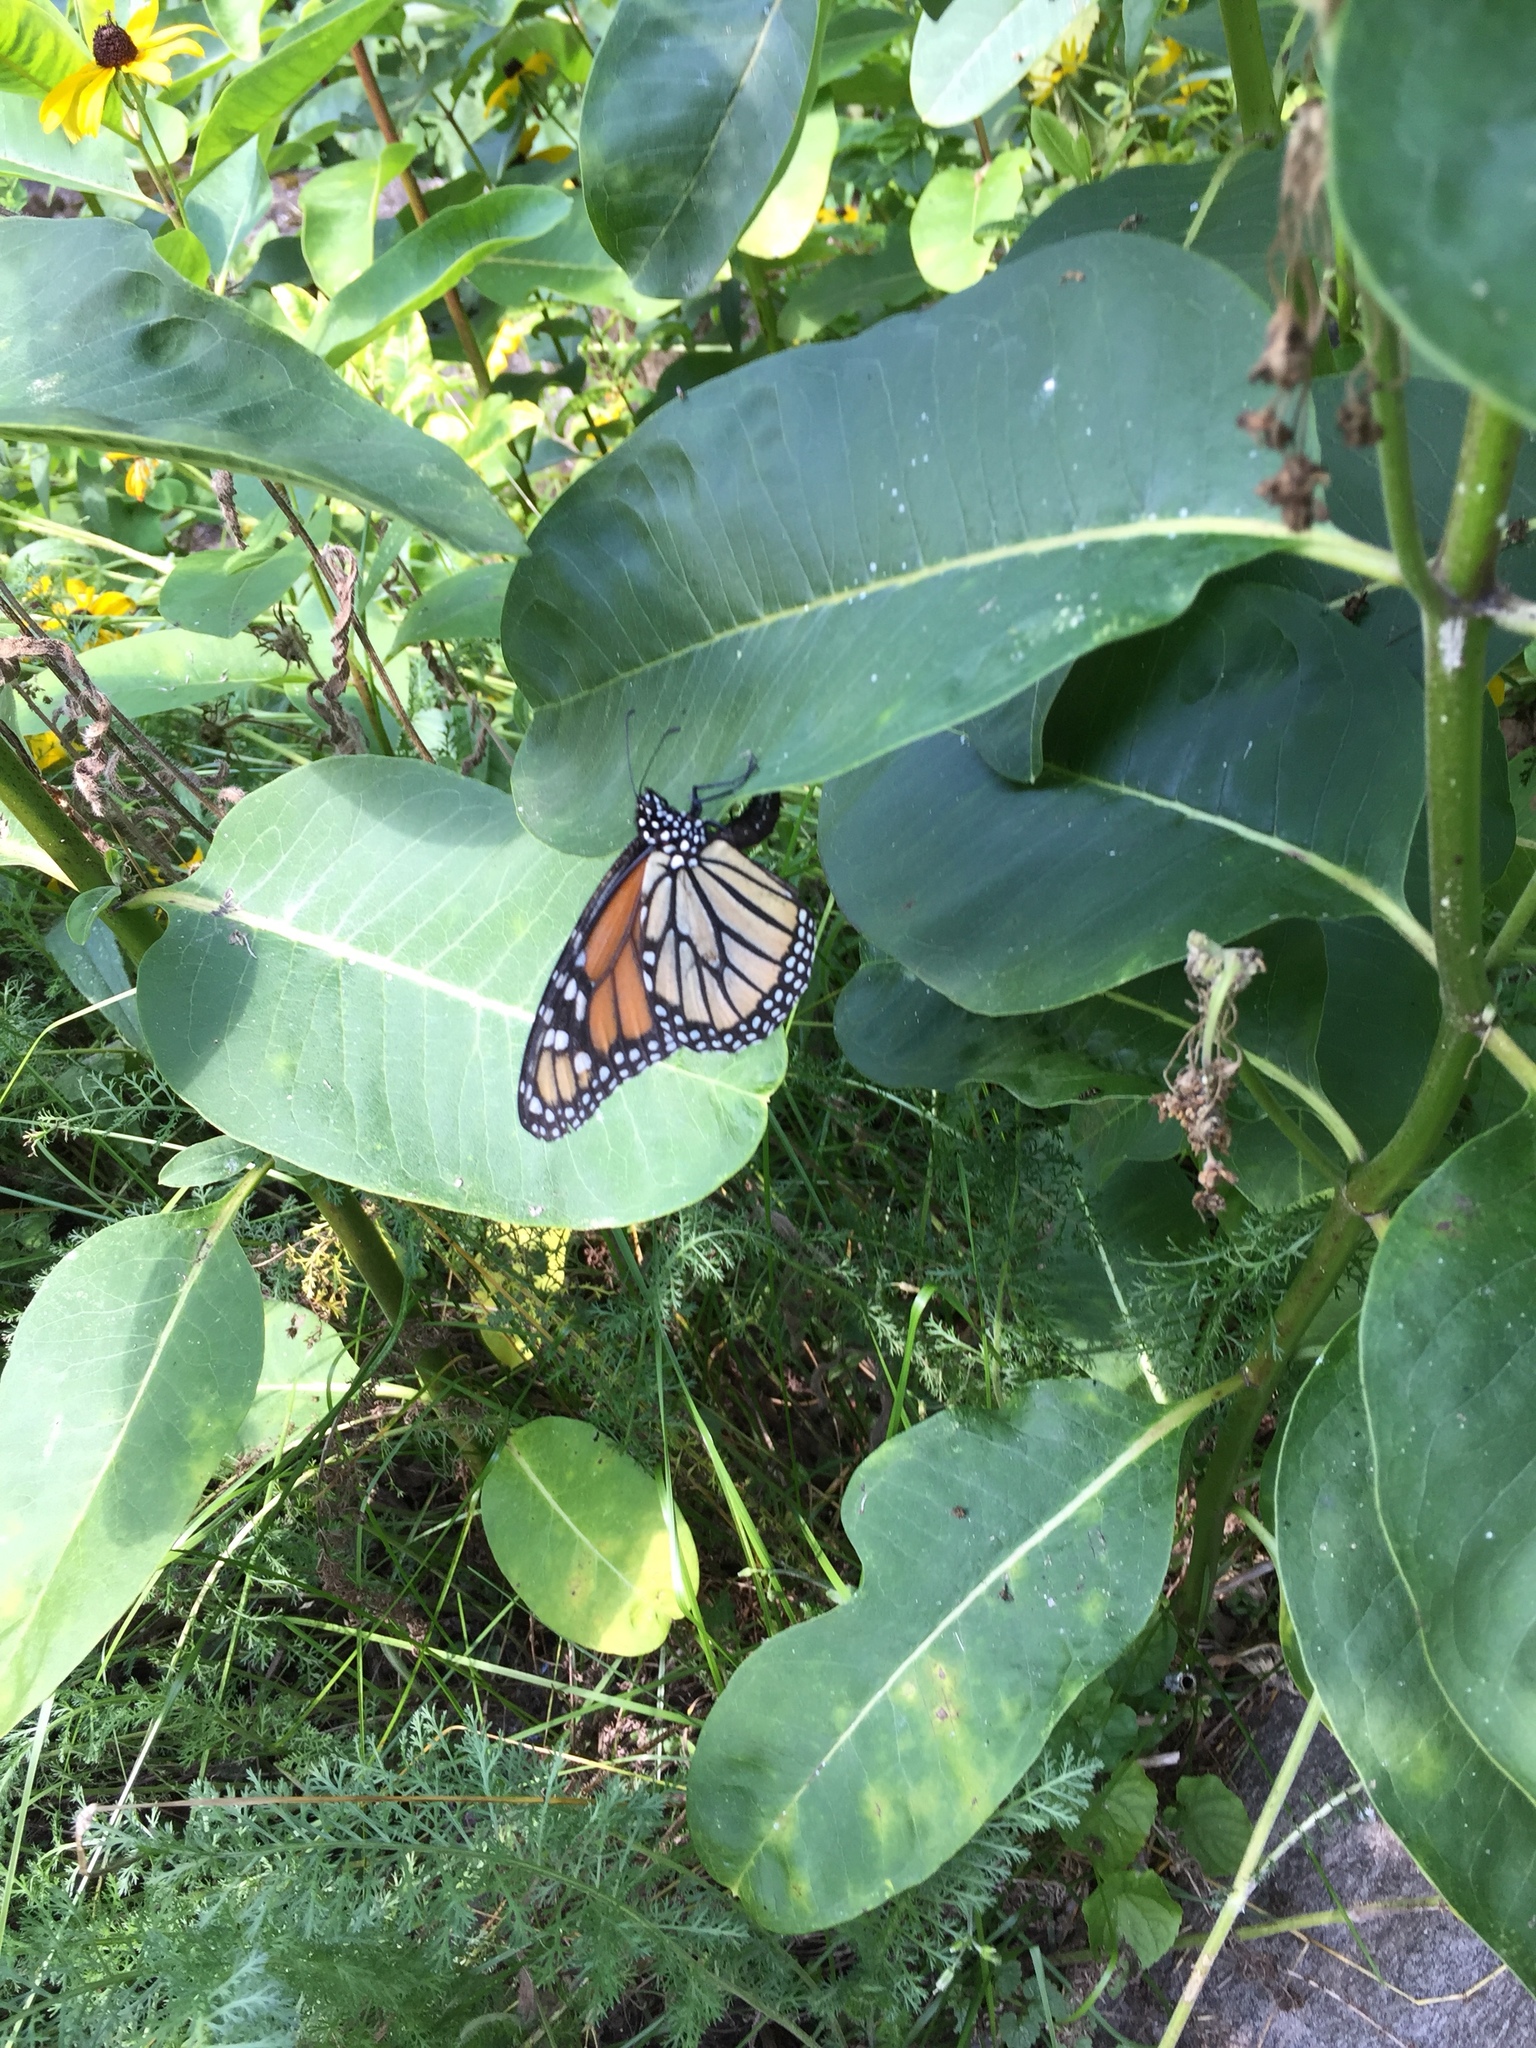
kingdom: Animalia
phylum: Arthropoda
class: Insecta
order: Lepidoptera
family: Nymphalidae
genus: Danaus
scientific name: Danaus plexippus
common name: Monarch
